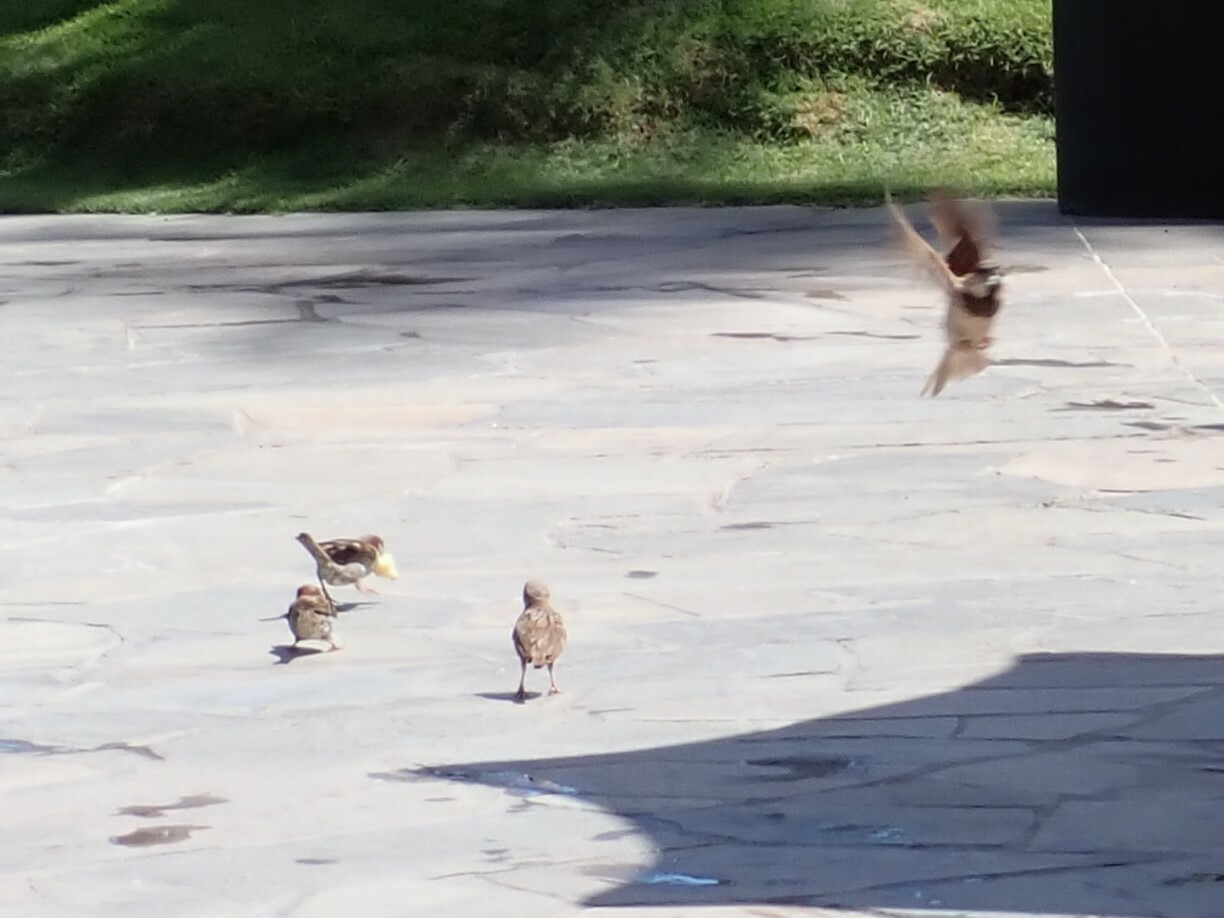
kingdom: Animalia
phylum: Chordata
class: Aves
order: Passeriformes
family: Passeridae
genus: Passer
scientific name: Passer domesticus
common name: House sparrow
